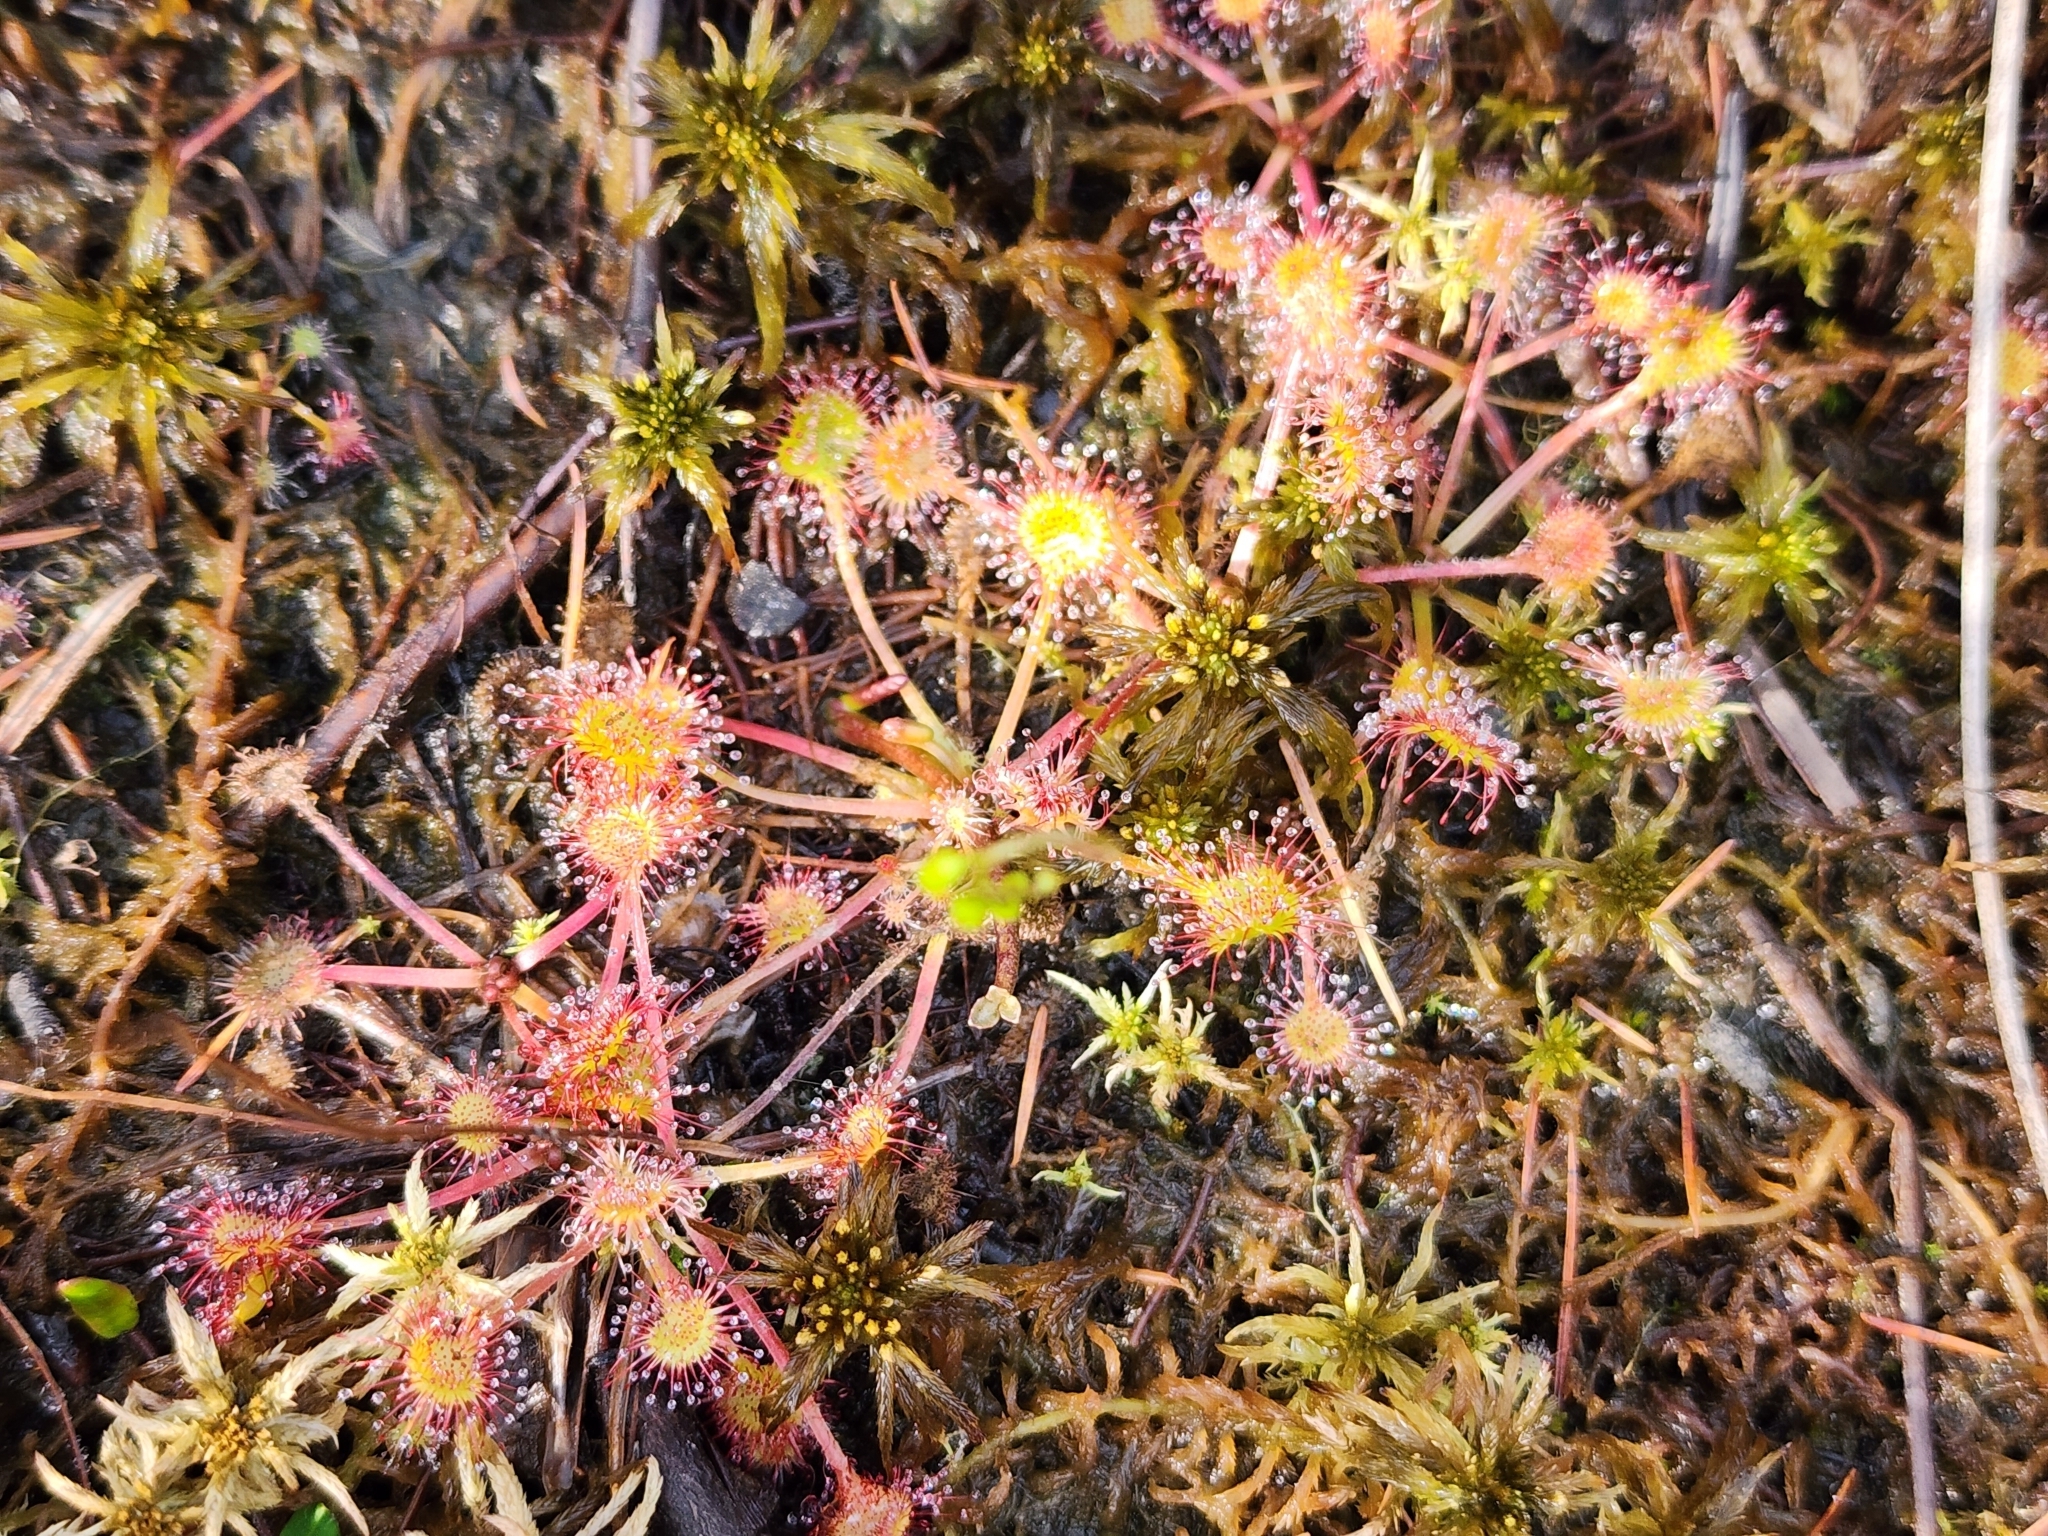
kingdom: Plantae
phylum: Tracheophyta
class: Magnoliopsida
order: Caryophyllales
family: Droseraceae
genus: Drosera
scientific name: Drosera rotundifolia
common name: Round-leaved sundew
